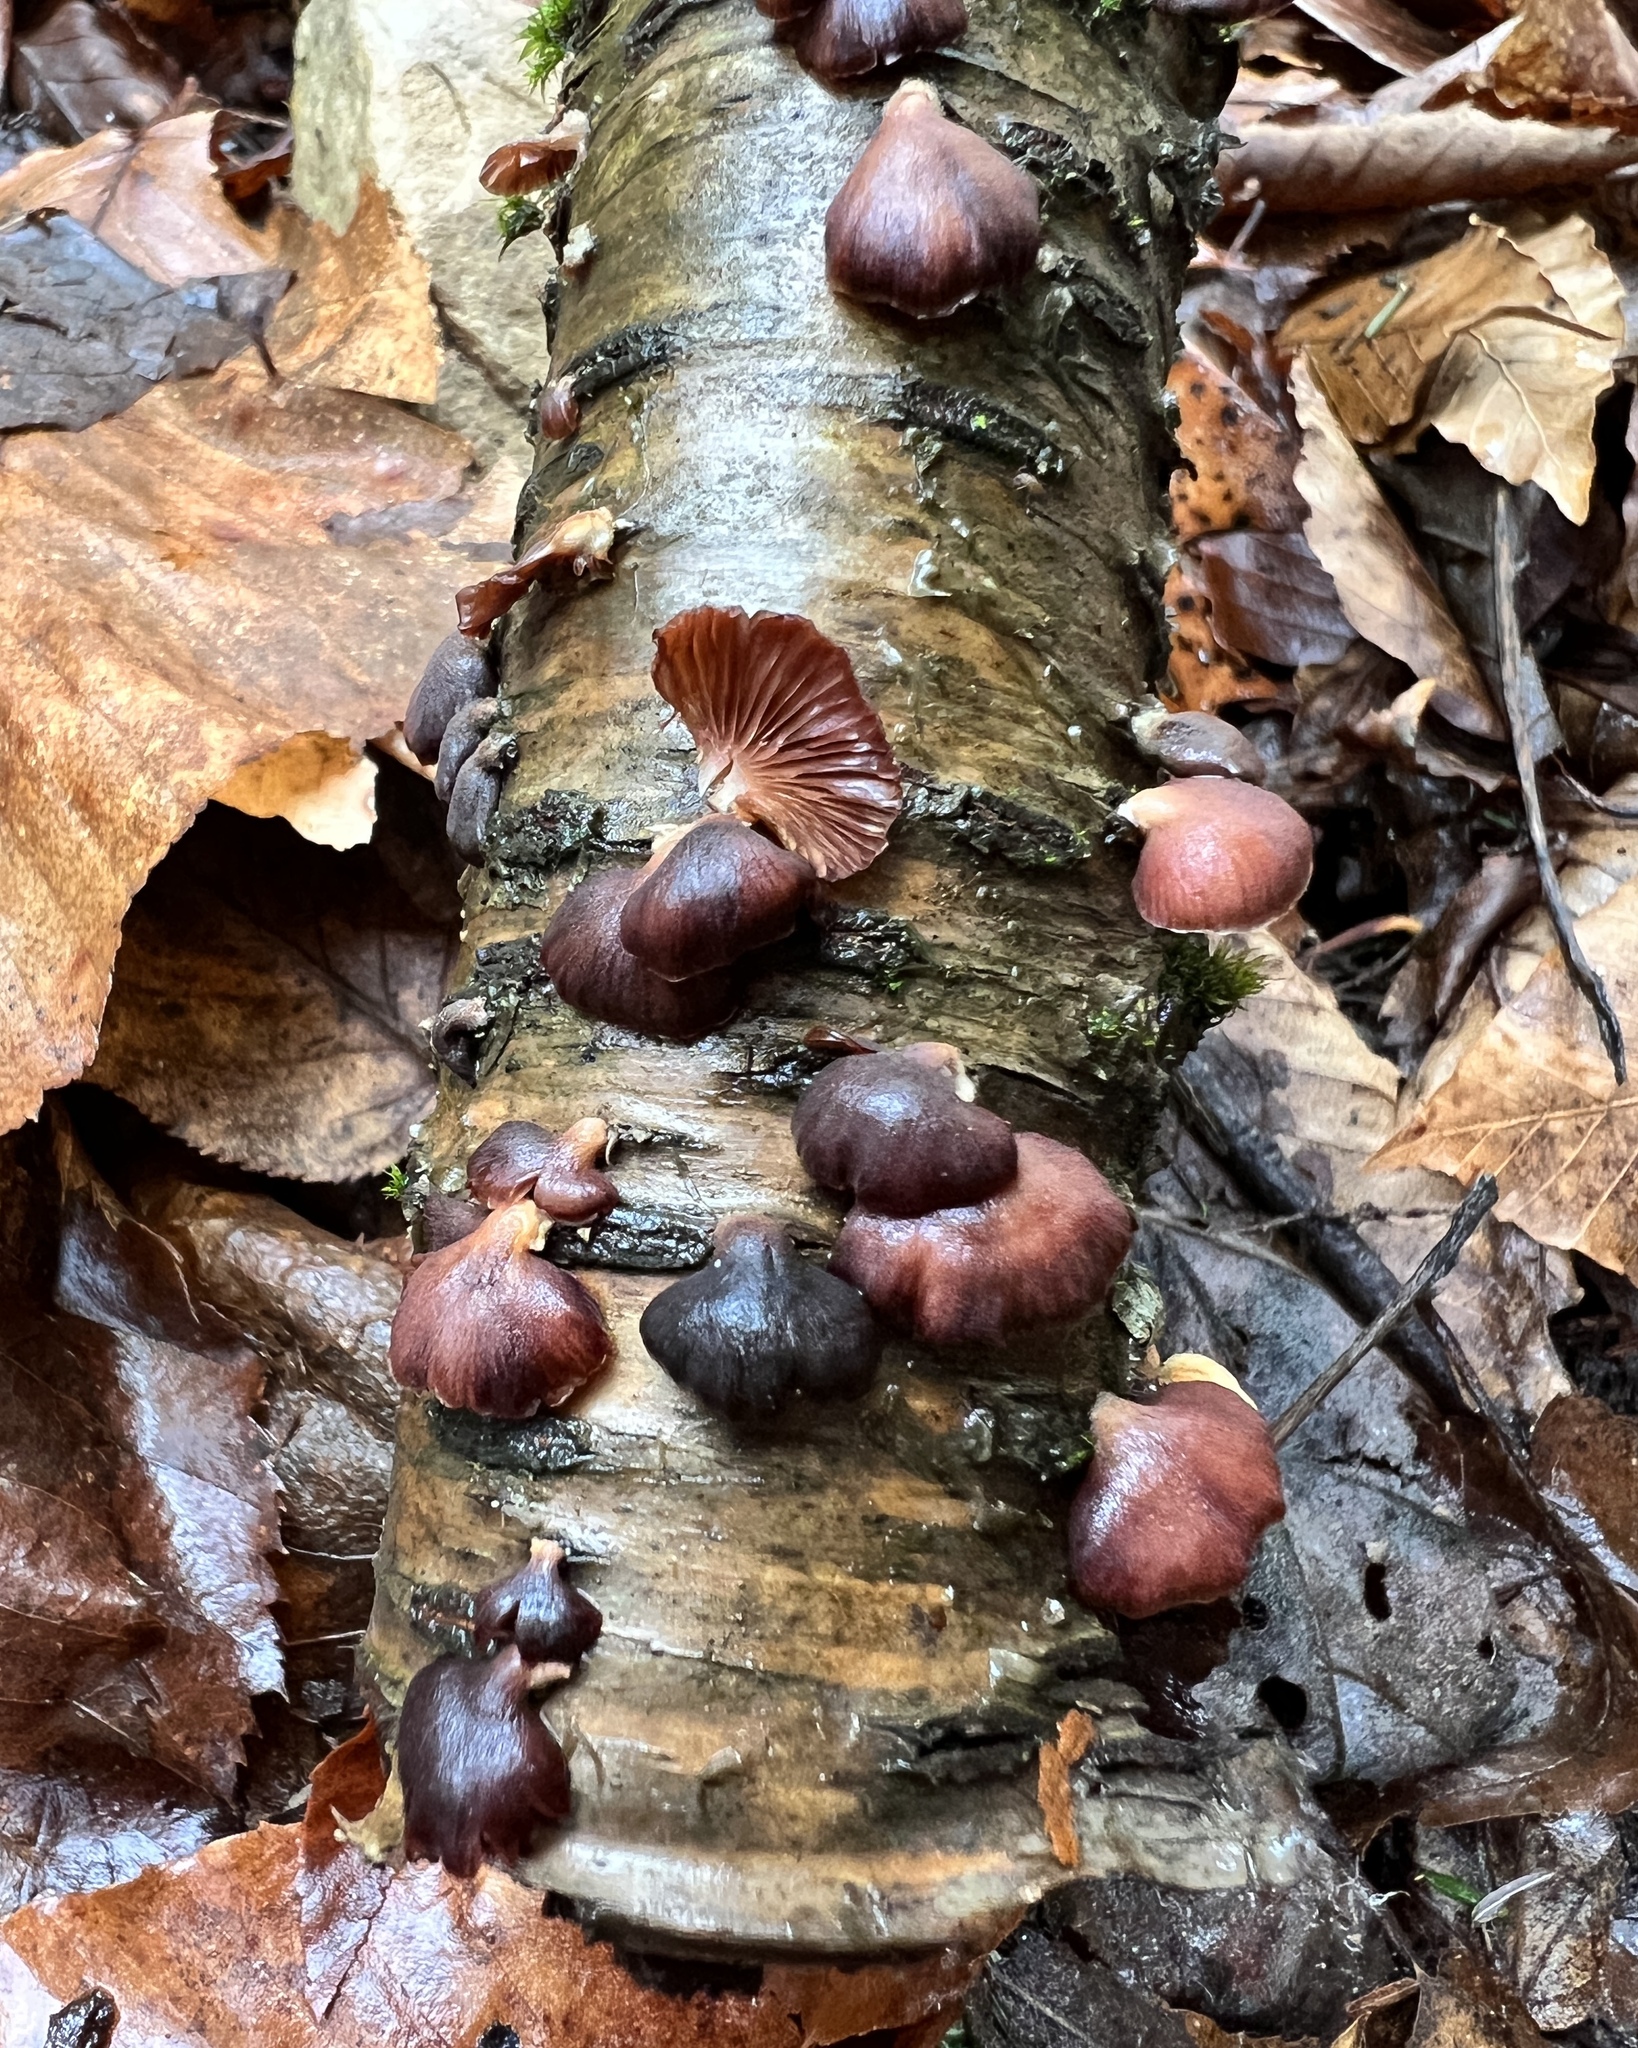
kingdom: Fungi
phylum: Basidiomycota
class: Agaricomycetes
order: Agaricales
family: Mycenaceae
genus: Panellus
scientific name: Panellus ringens
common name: Winter oysterling
